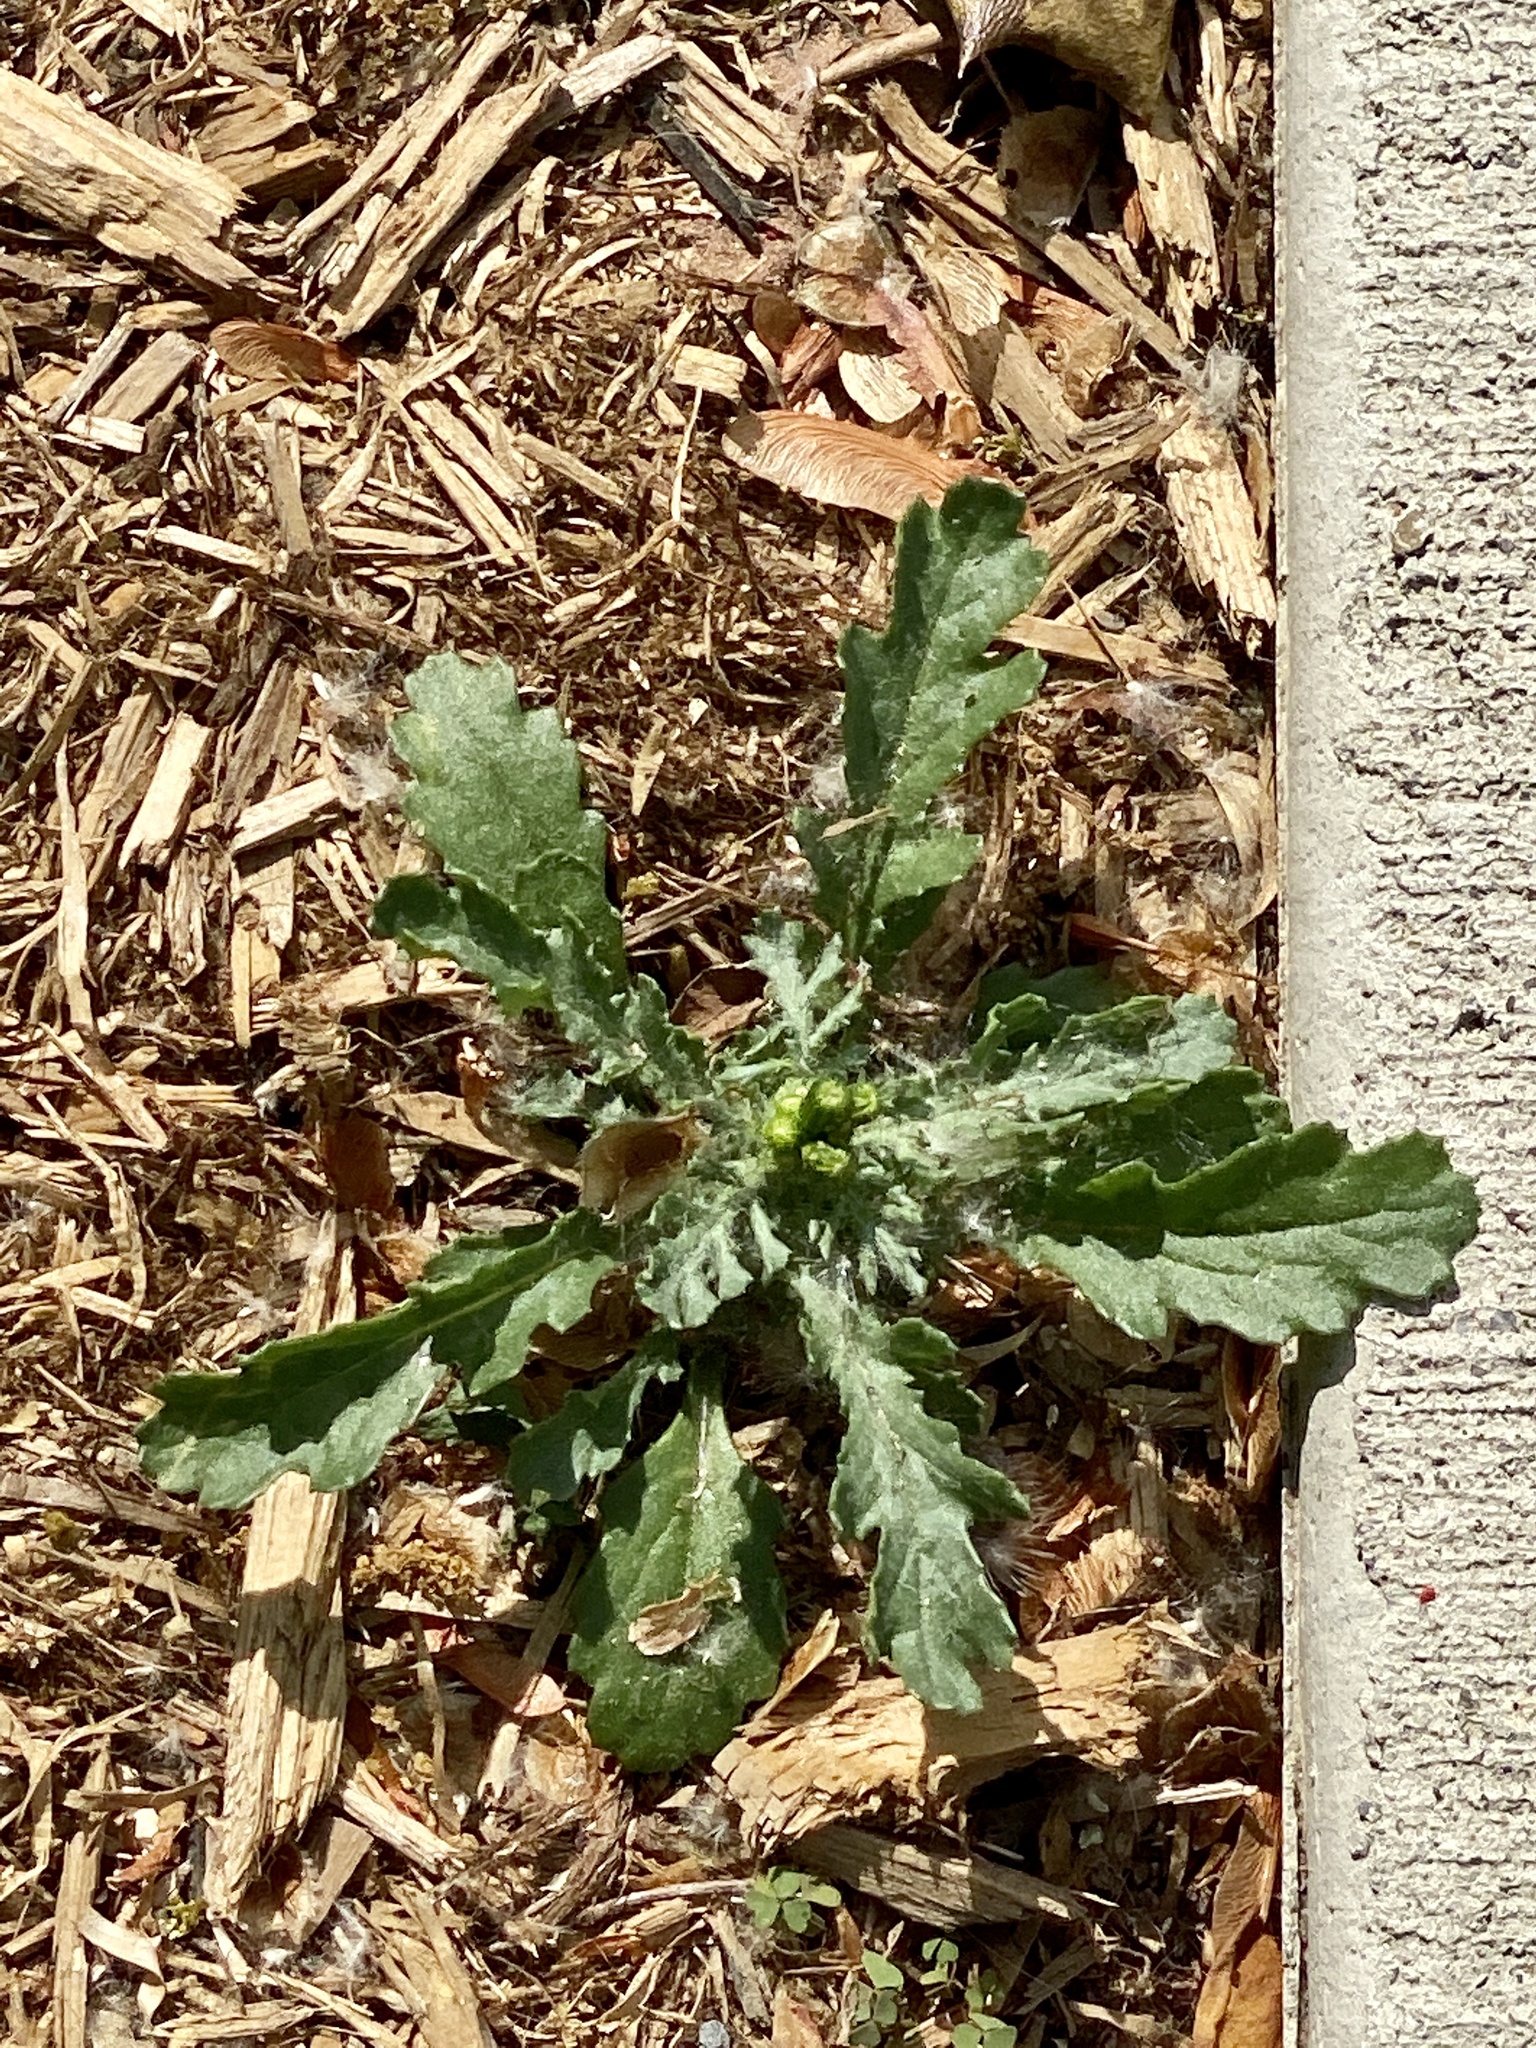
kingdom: Plantae
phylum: Tracheophyta
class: Magnoliopsida
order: Asterales
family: Asteraceae
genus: Senecio
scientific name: Senecio vulgaris
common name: Old-man-in-the-spring
